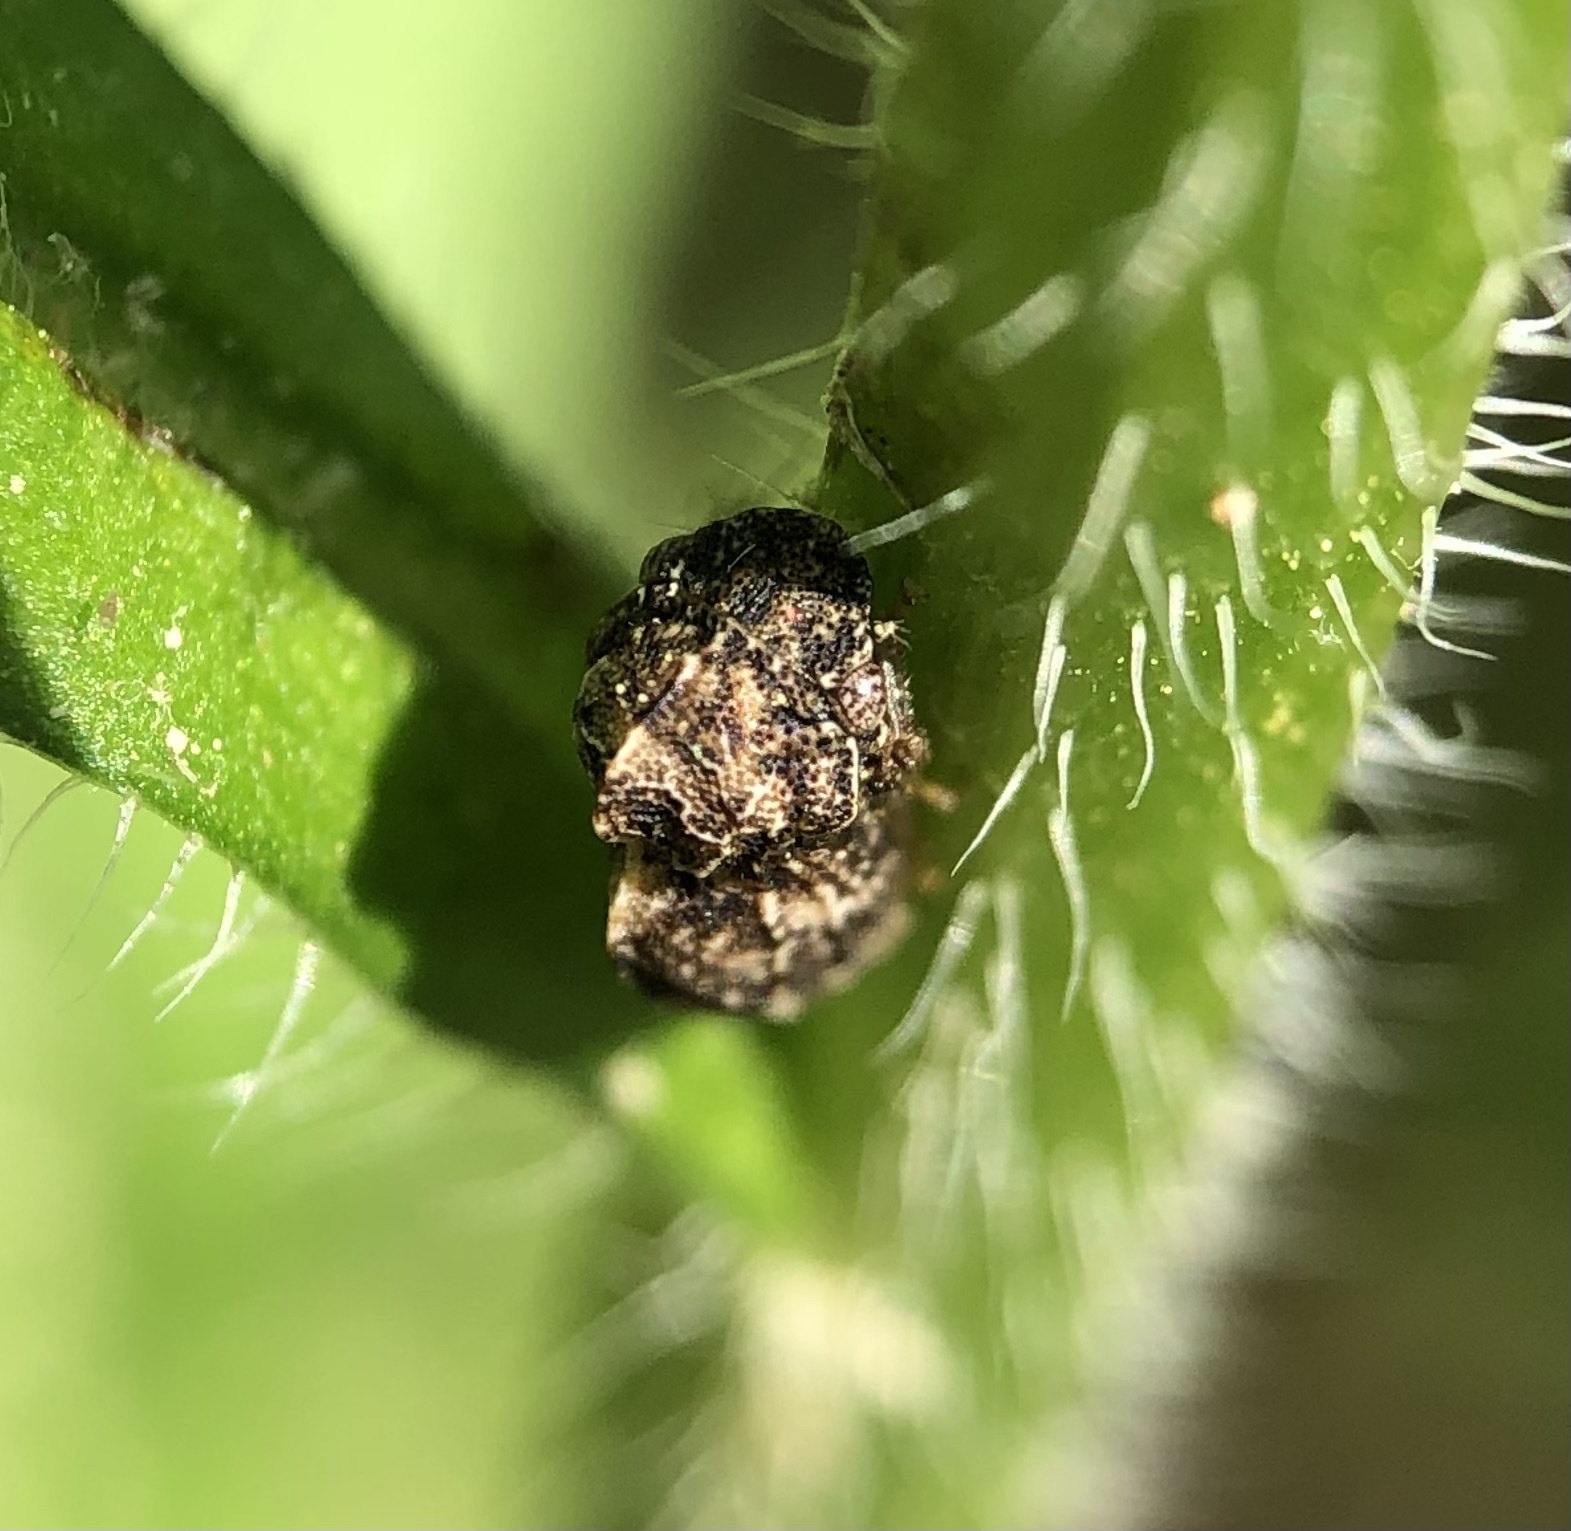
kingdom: Animalia
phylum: Arthropoda
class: Insecta
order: Hemiptera
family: Membracidae
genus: Publilia
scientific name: Publilia concava
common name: Aster treehopper
